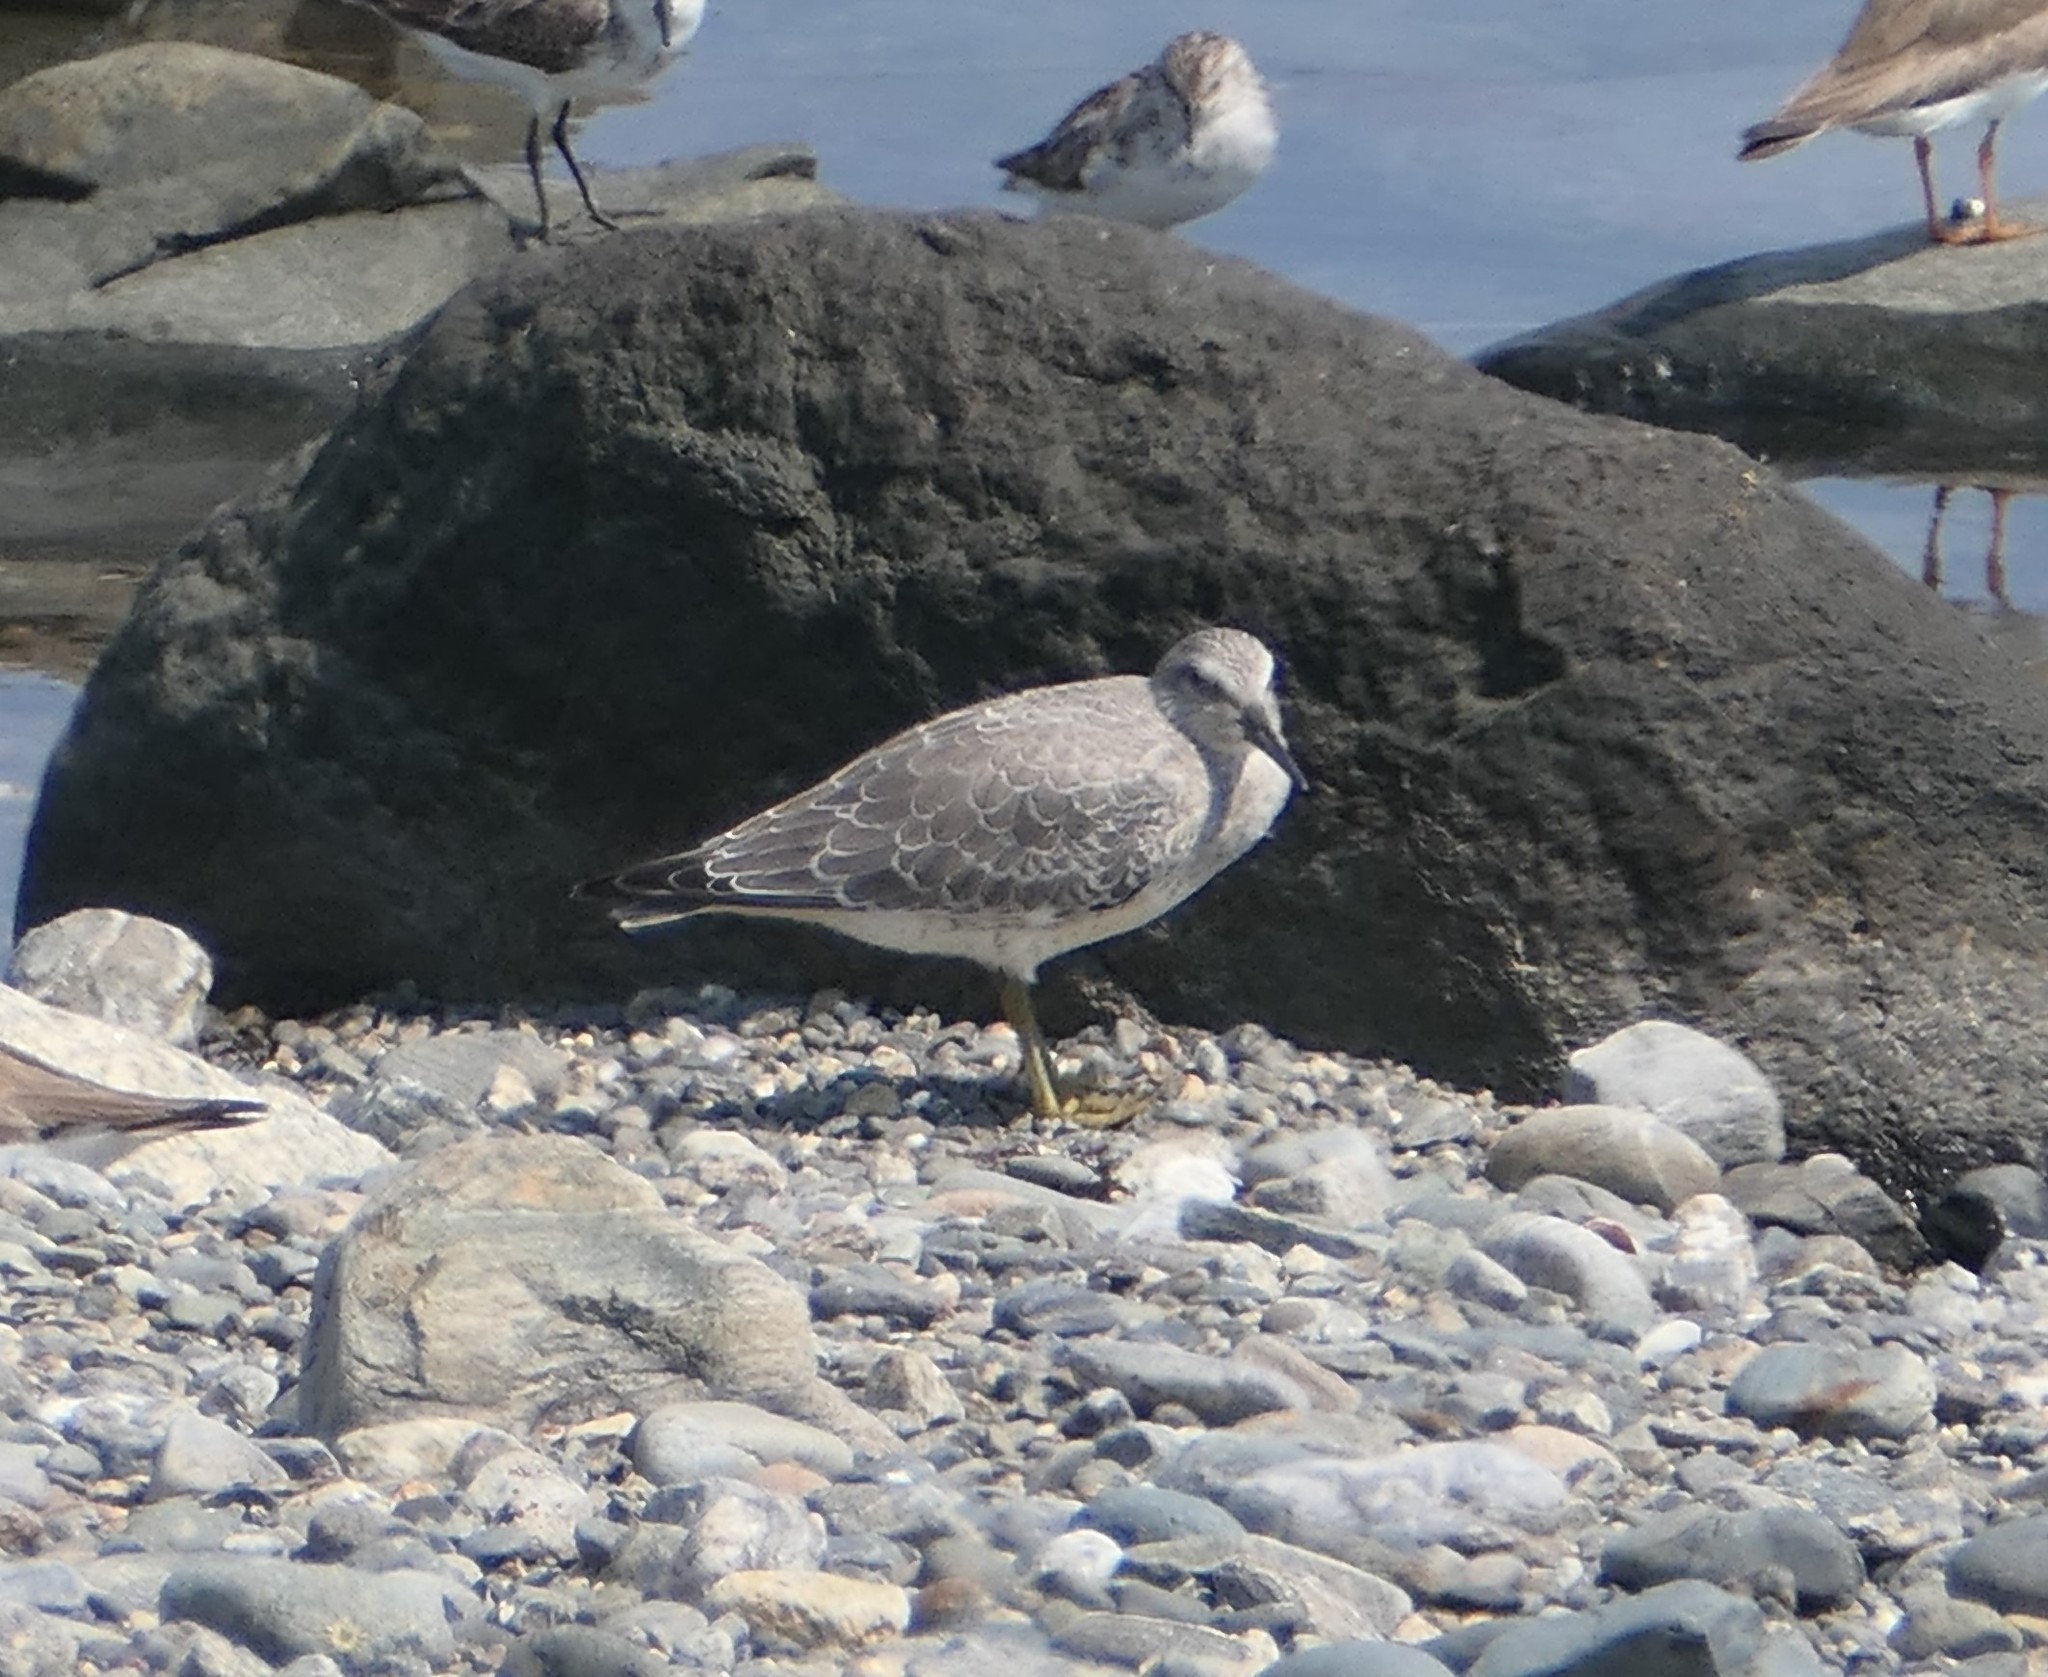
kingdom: Animalia
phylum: Chordata
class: Aves
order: Charadriiformes
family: Scolopacidae
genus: Calidris
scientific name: Calidris canutus
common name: Red knot
